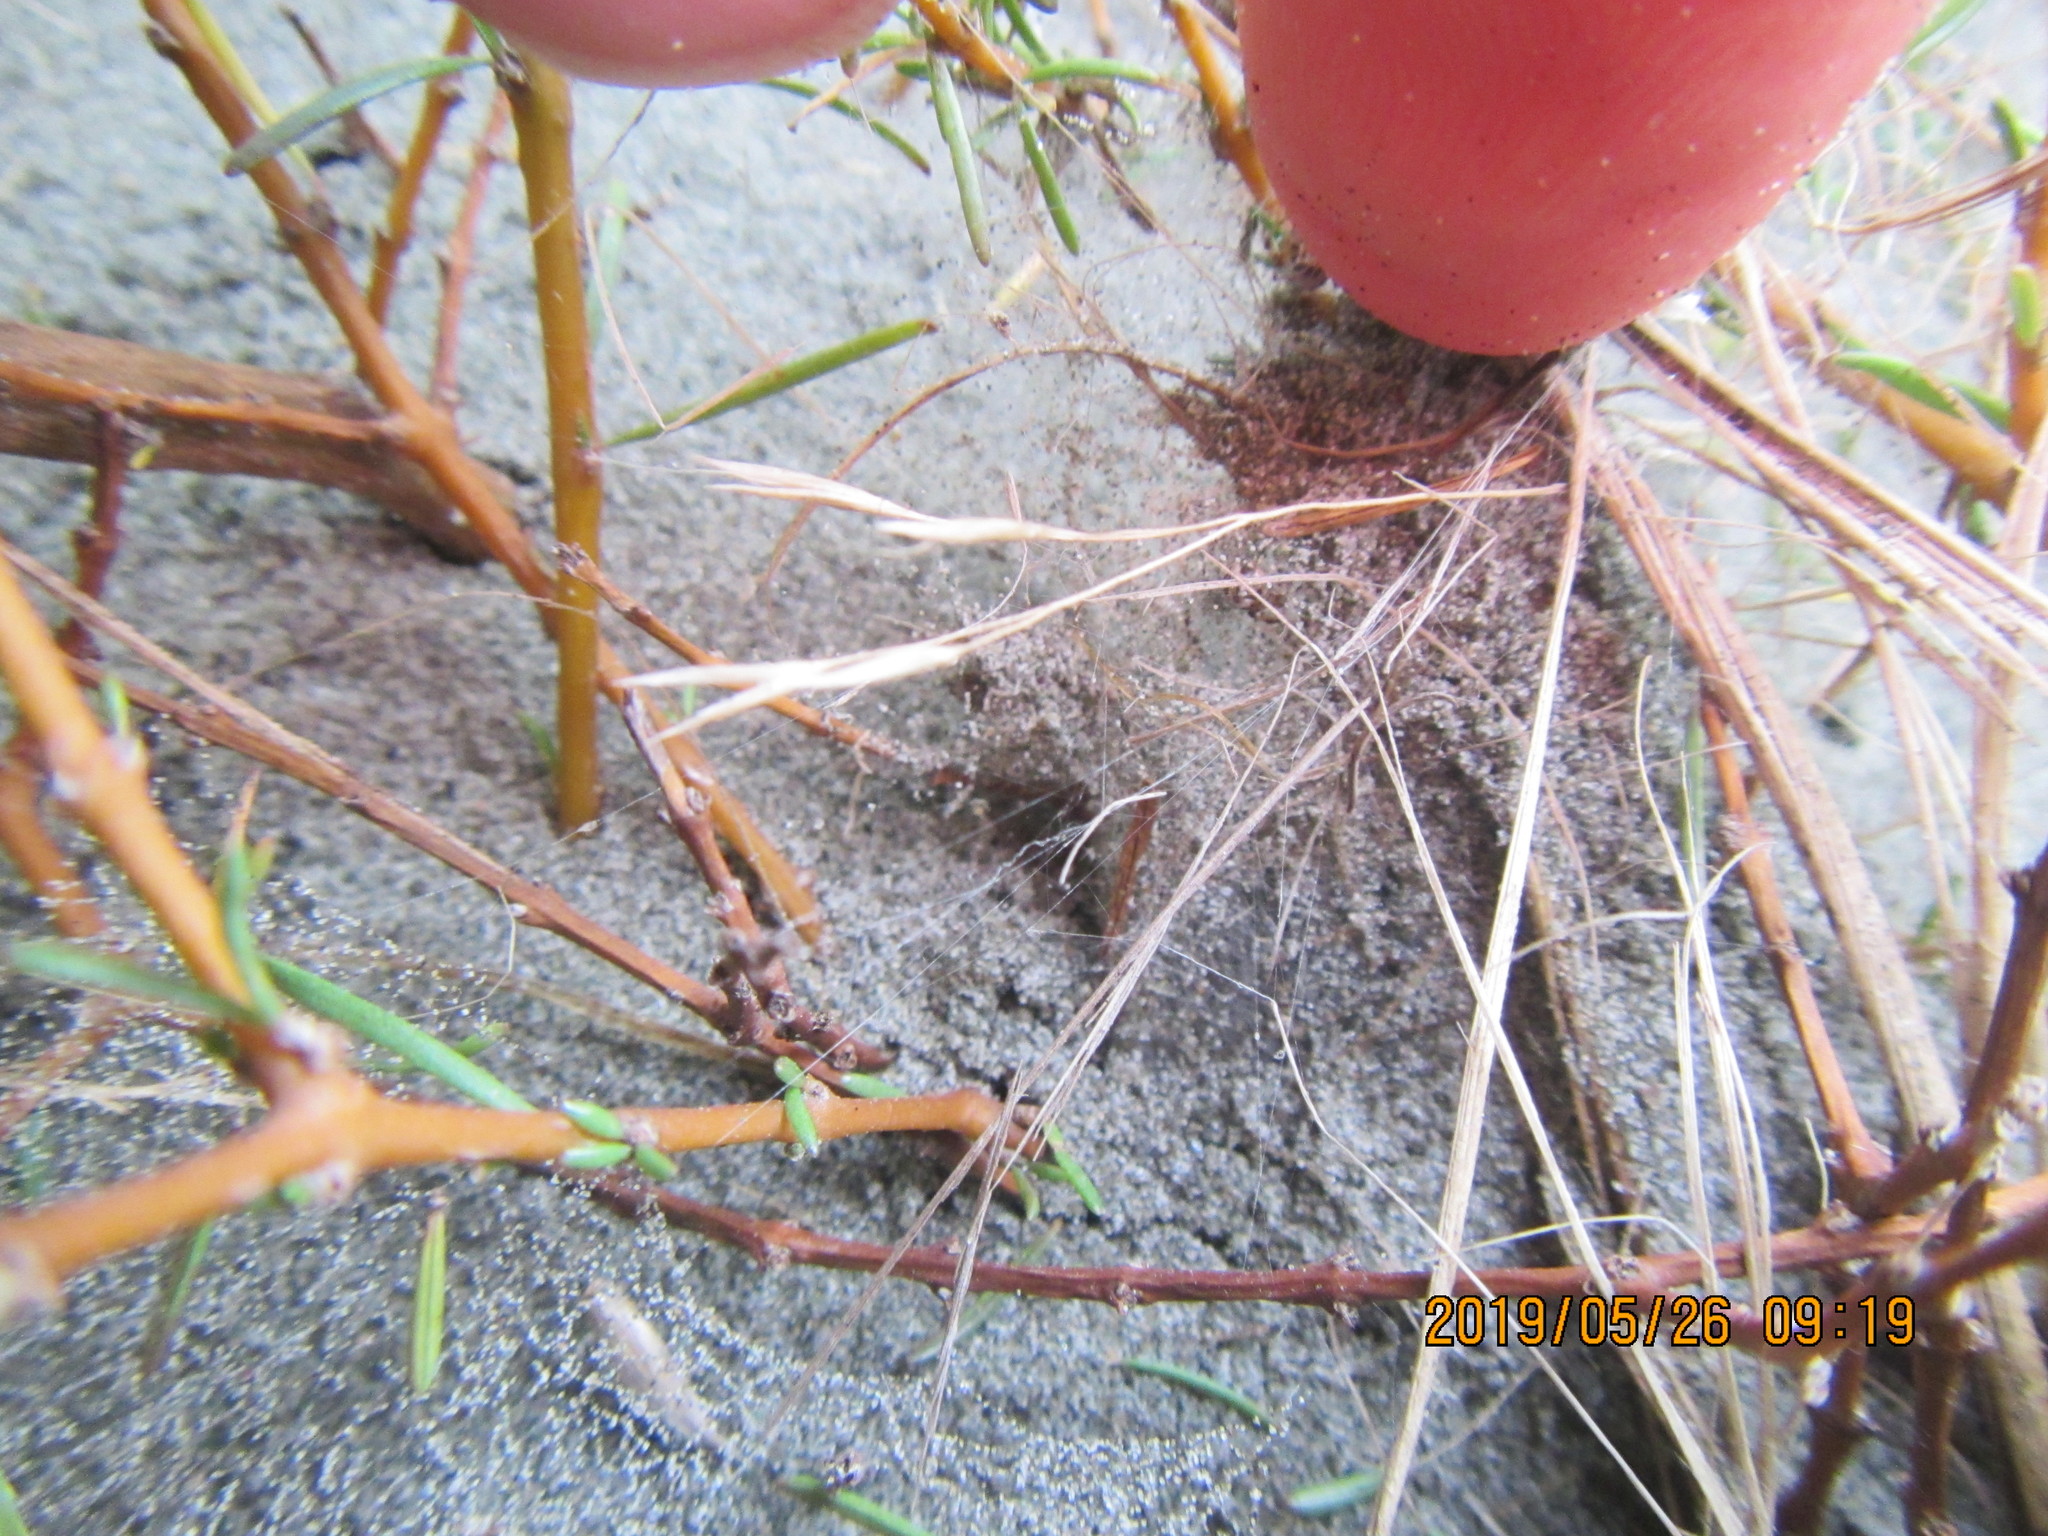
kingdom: Animalia
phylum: Arthropoda
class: Arachnida
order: Araneae
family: Theridiidae
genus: Latrodectus
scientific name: Latrodectus katipo
